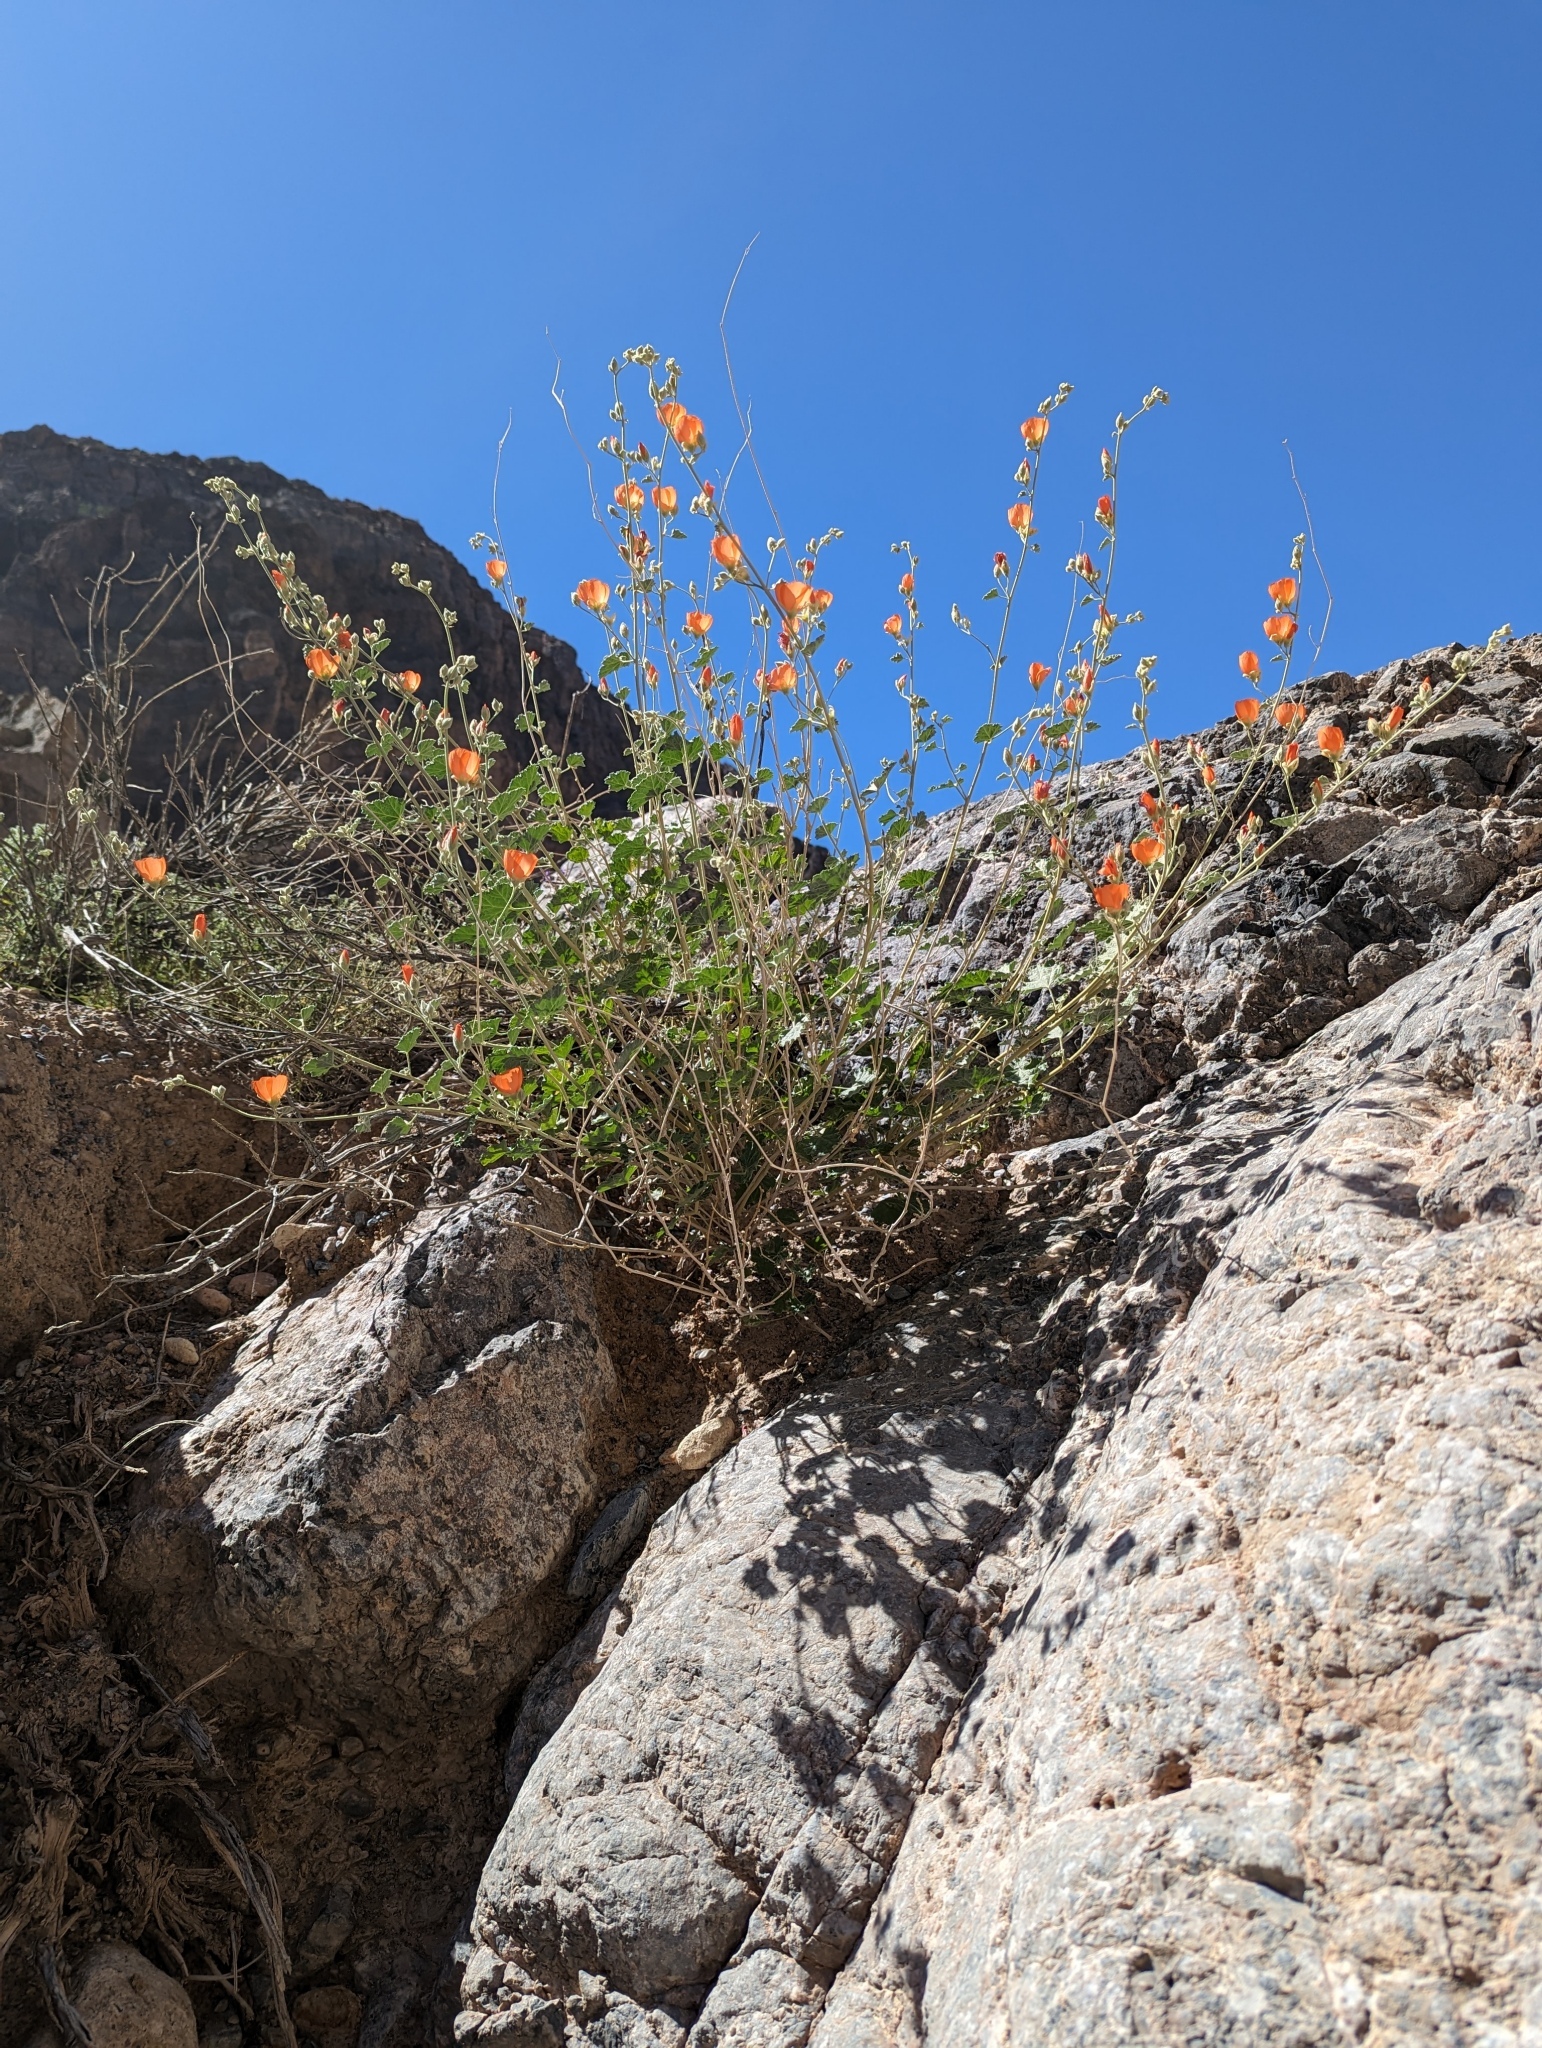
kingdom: Plantae
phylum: Tracheophyta
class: Magnoliopsida
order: Malvales
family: Malvaceae
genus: Sphaeralcea
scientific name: Sphaeralcea ambigua
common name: Apricot globe-mallow
